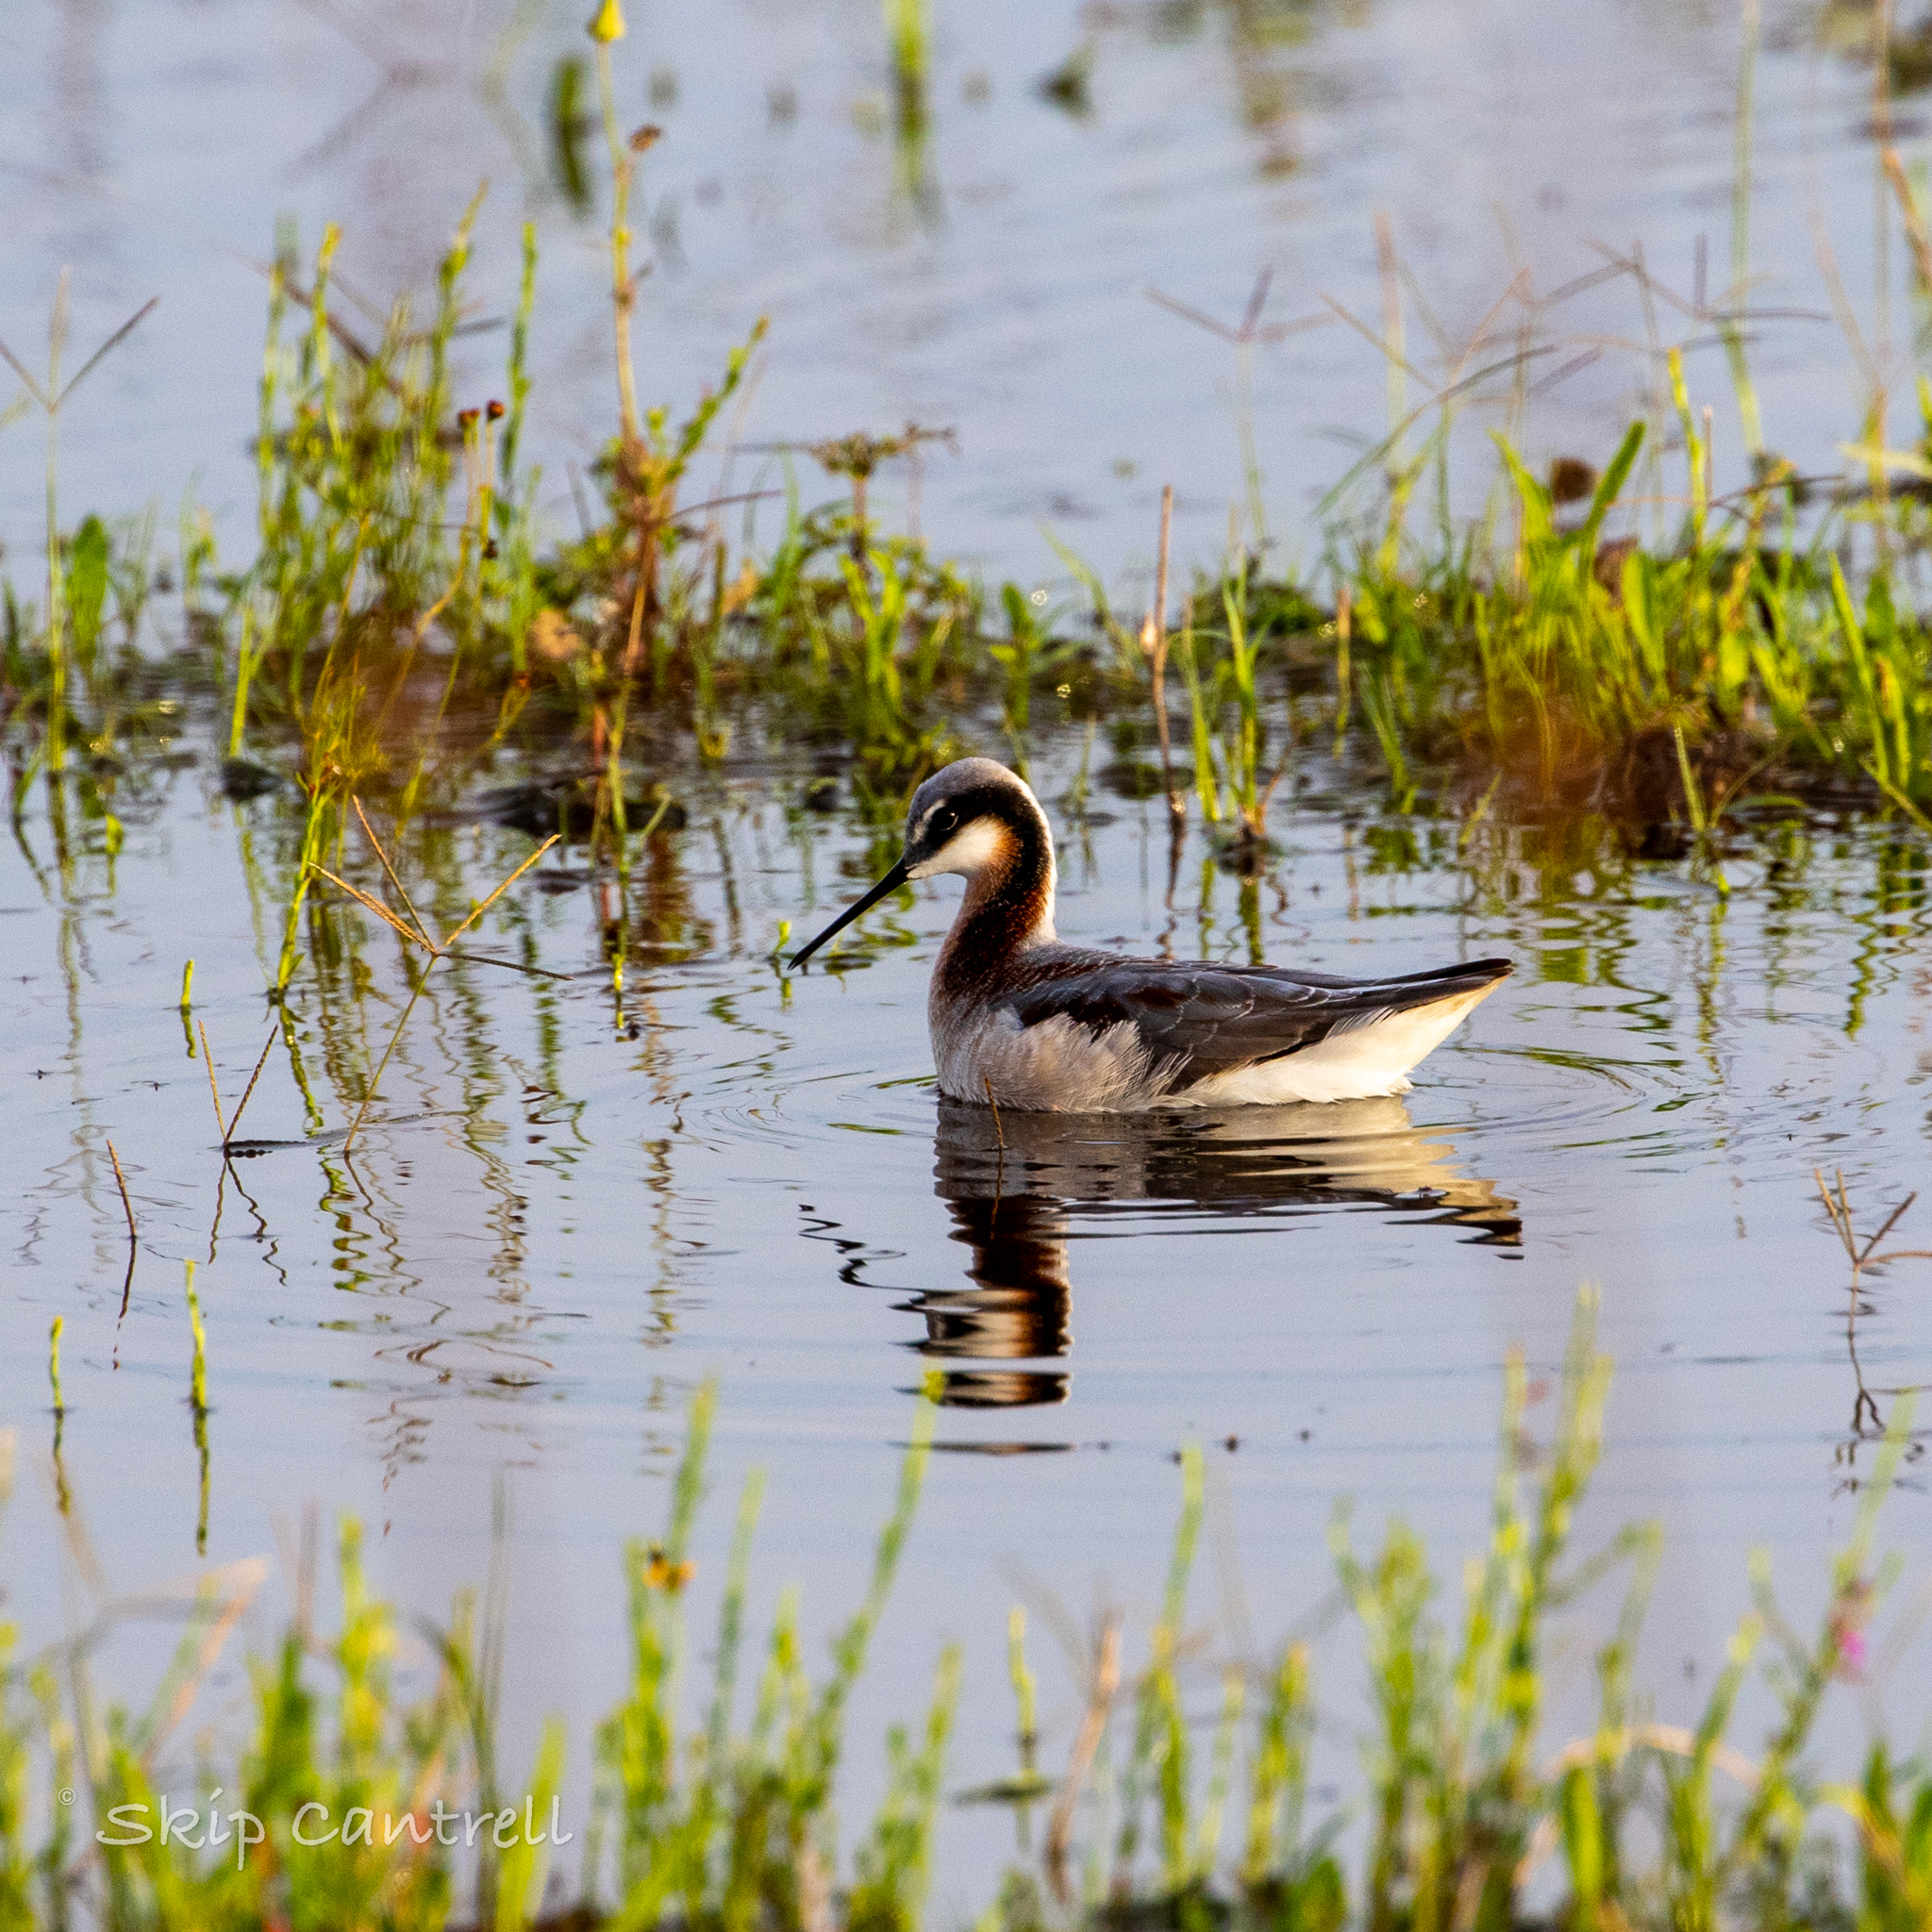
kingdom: Animalia
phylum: Chordata
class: Aves
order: Charadriiformes
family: Scolopacidae
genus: Phalaropus
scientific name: Phalaropus tricolor
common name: Wilson's phalarope
